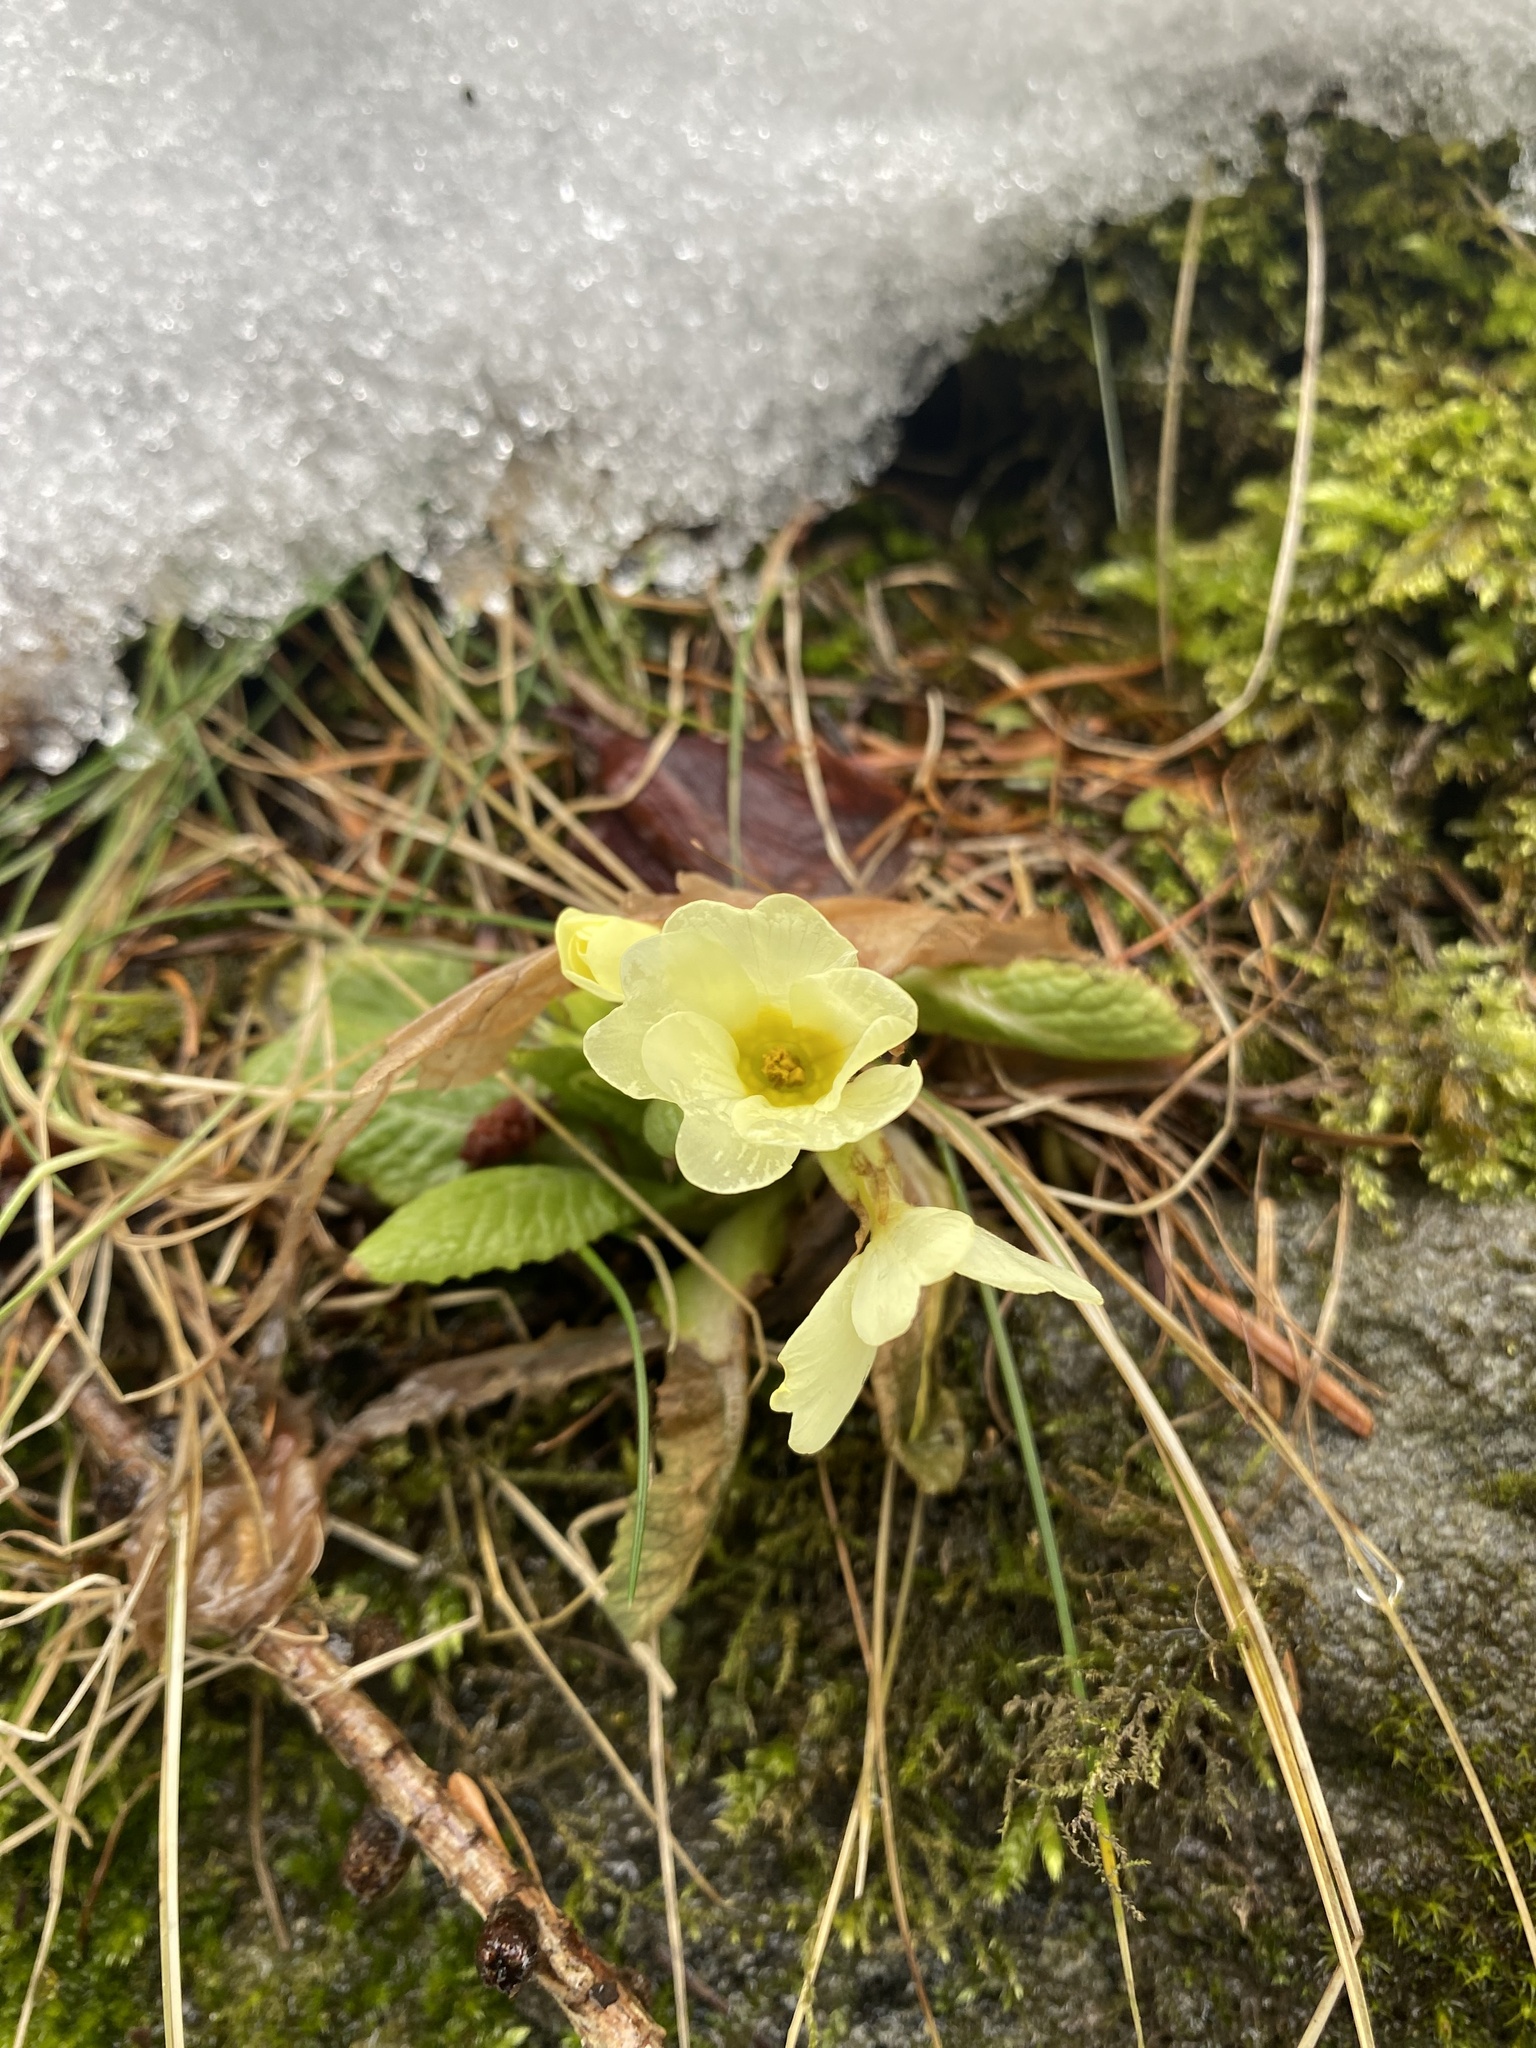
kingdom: Plantae
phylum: Tracheophyta
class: Magnoliopsida
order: Ericales
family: Primulaceae
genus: Primula
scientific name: Primula vulgaris
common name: Primrose
